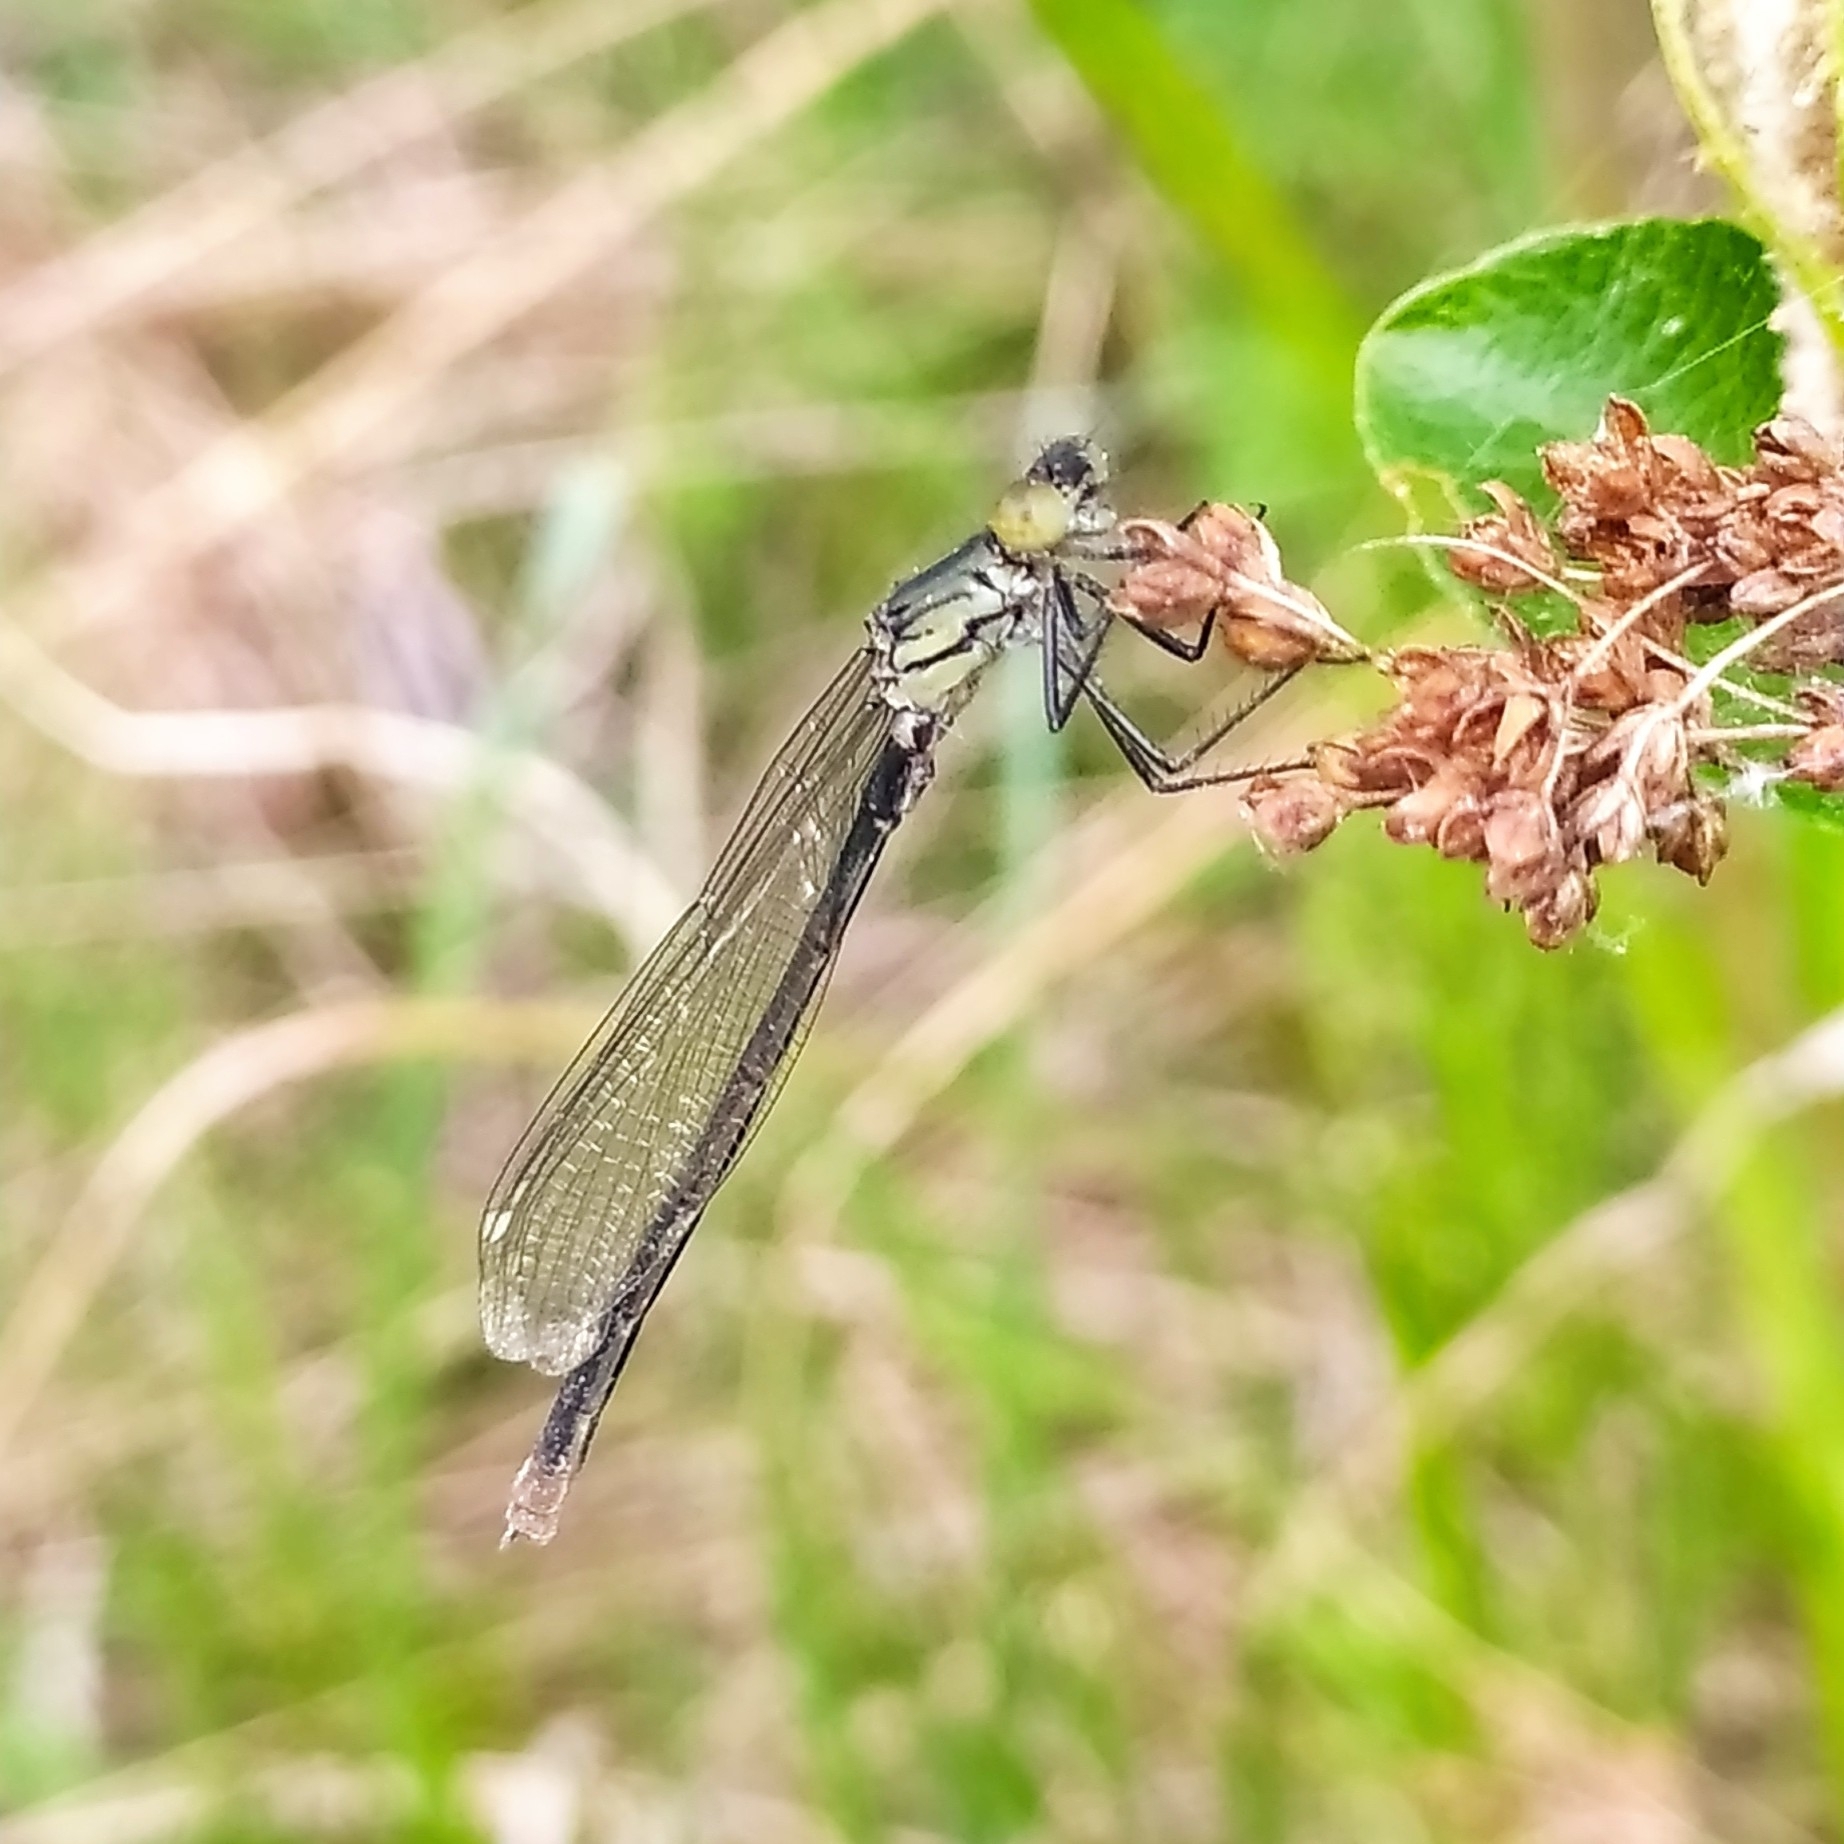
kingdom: Animalia
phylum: Arthropoda
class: Insecta
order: Odonata
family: Coenagrionidae
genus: Erythromma
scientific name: Erythromma najas
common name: Red-eyed damselfly
